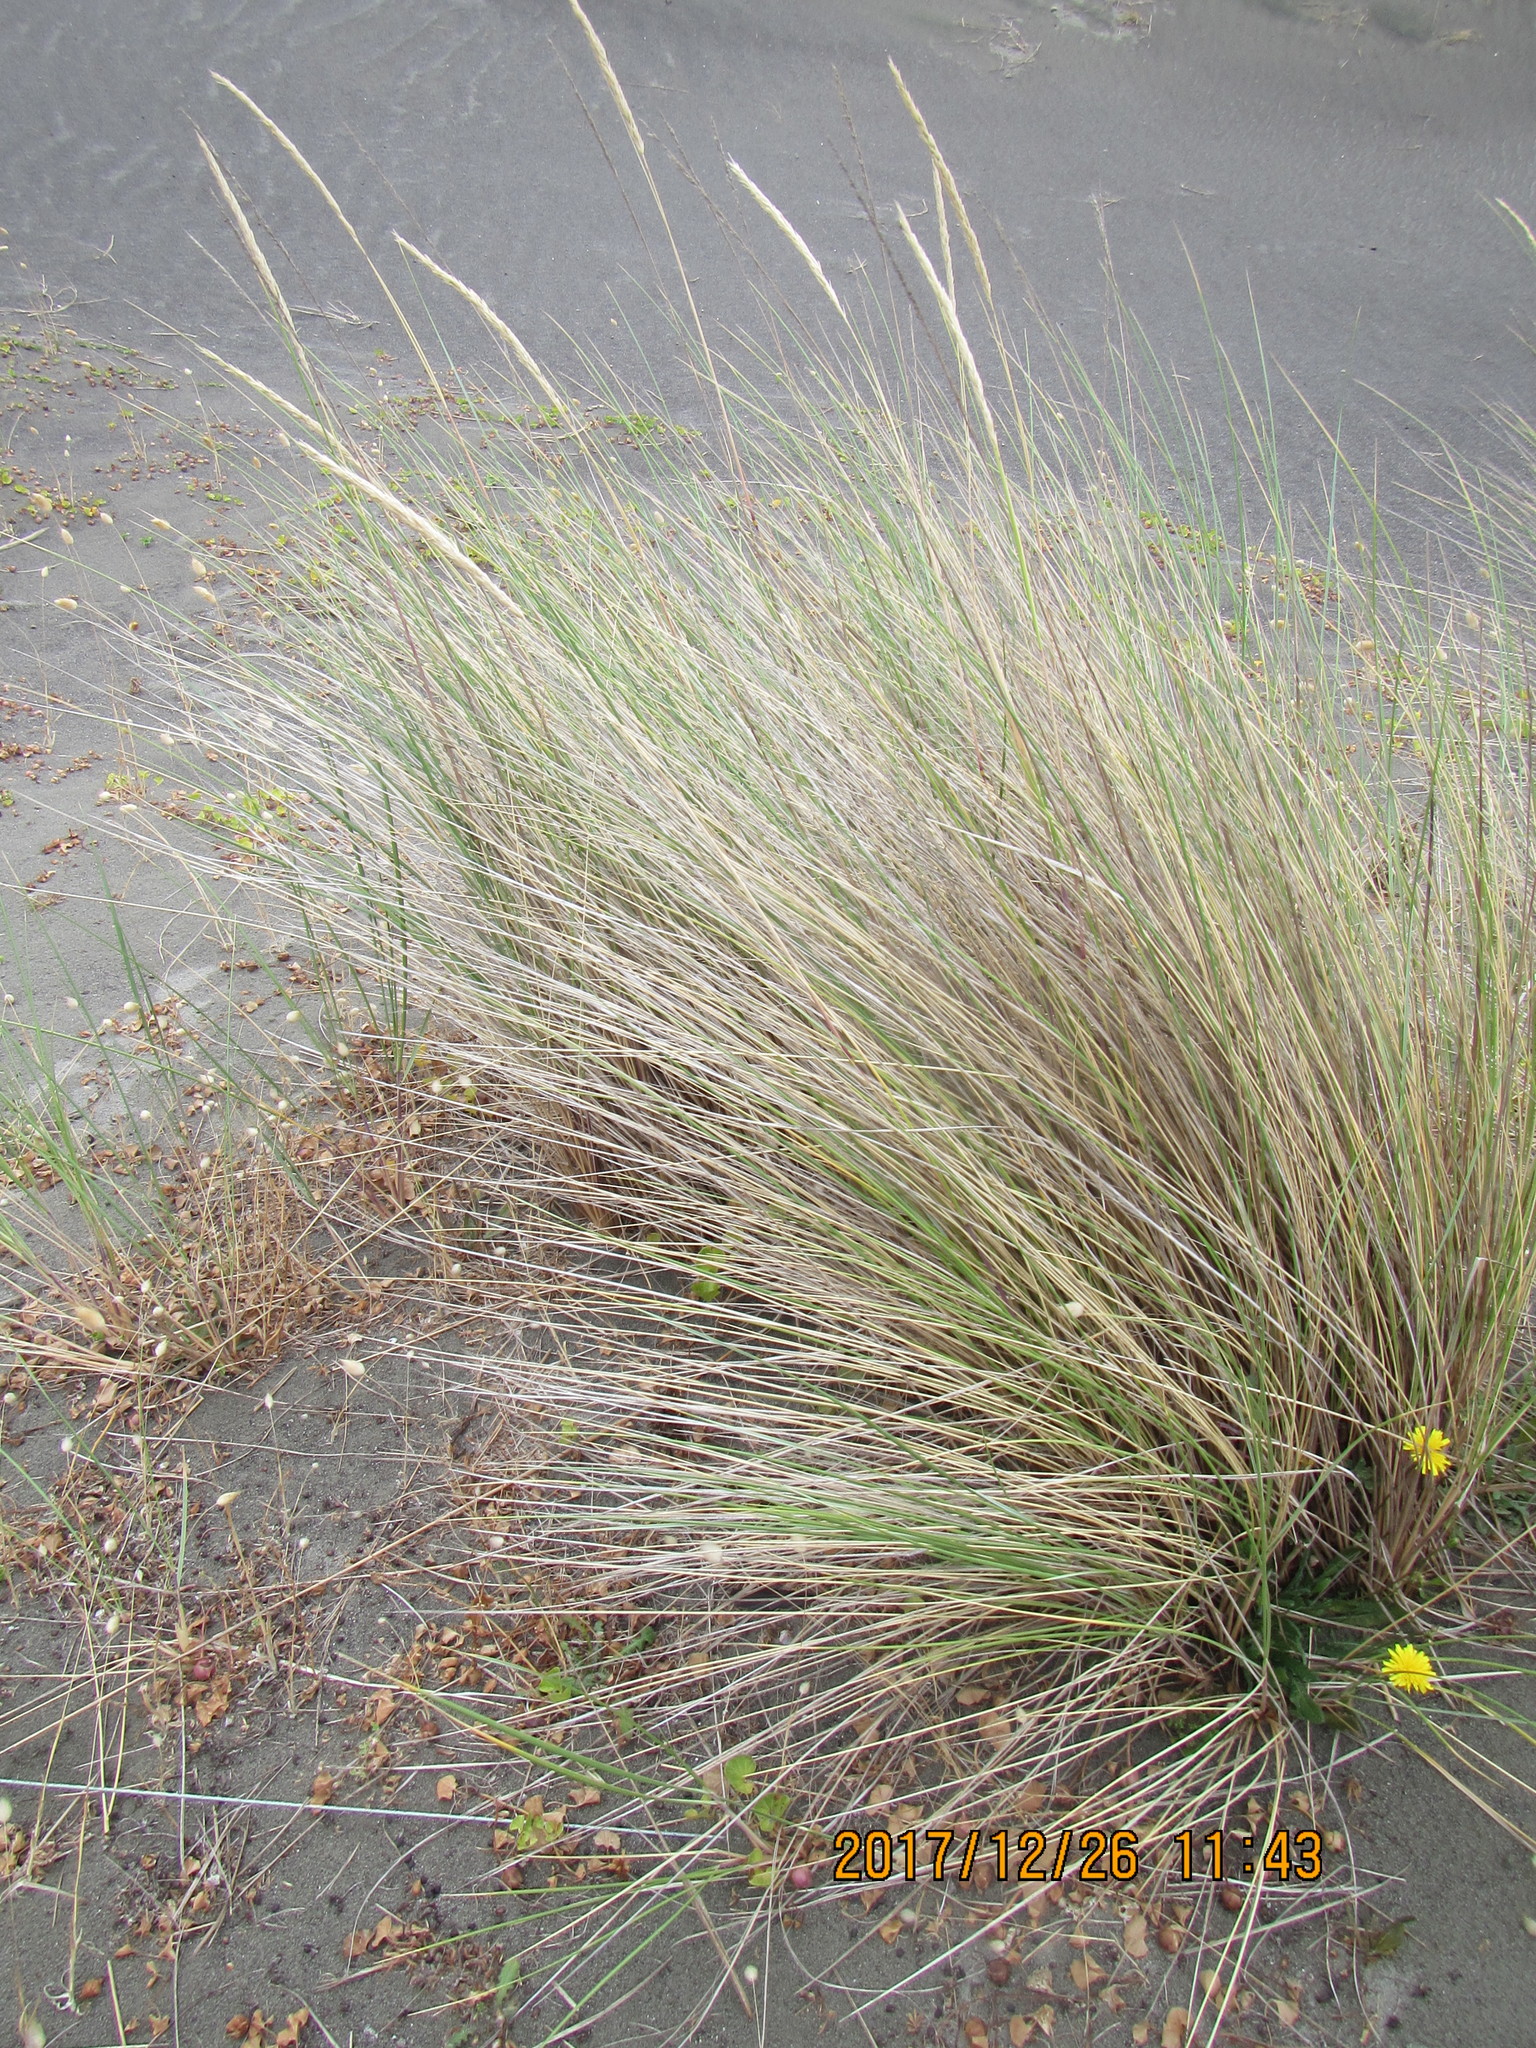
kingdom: Plantae
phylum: Tracheophyta
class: Liliopsida
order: Poales
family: Poaceae
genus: Calamagrostis
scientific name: Calamagrostis arenaria
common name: European beachgrass
